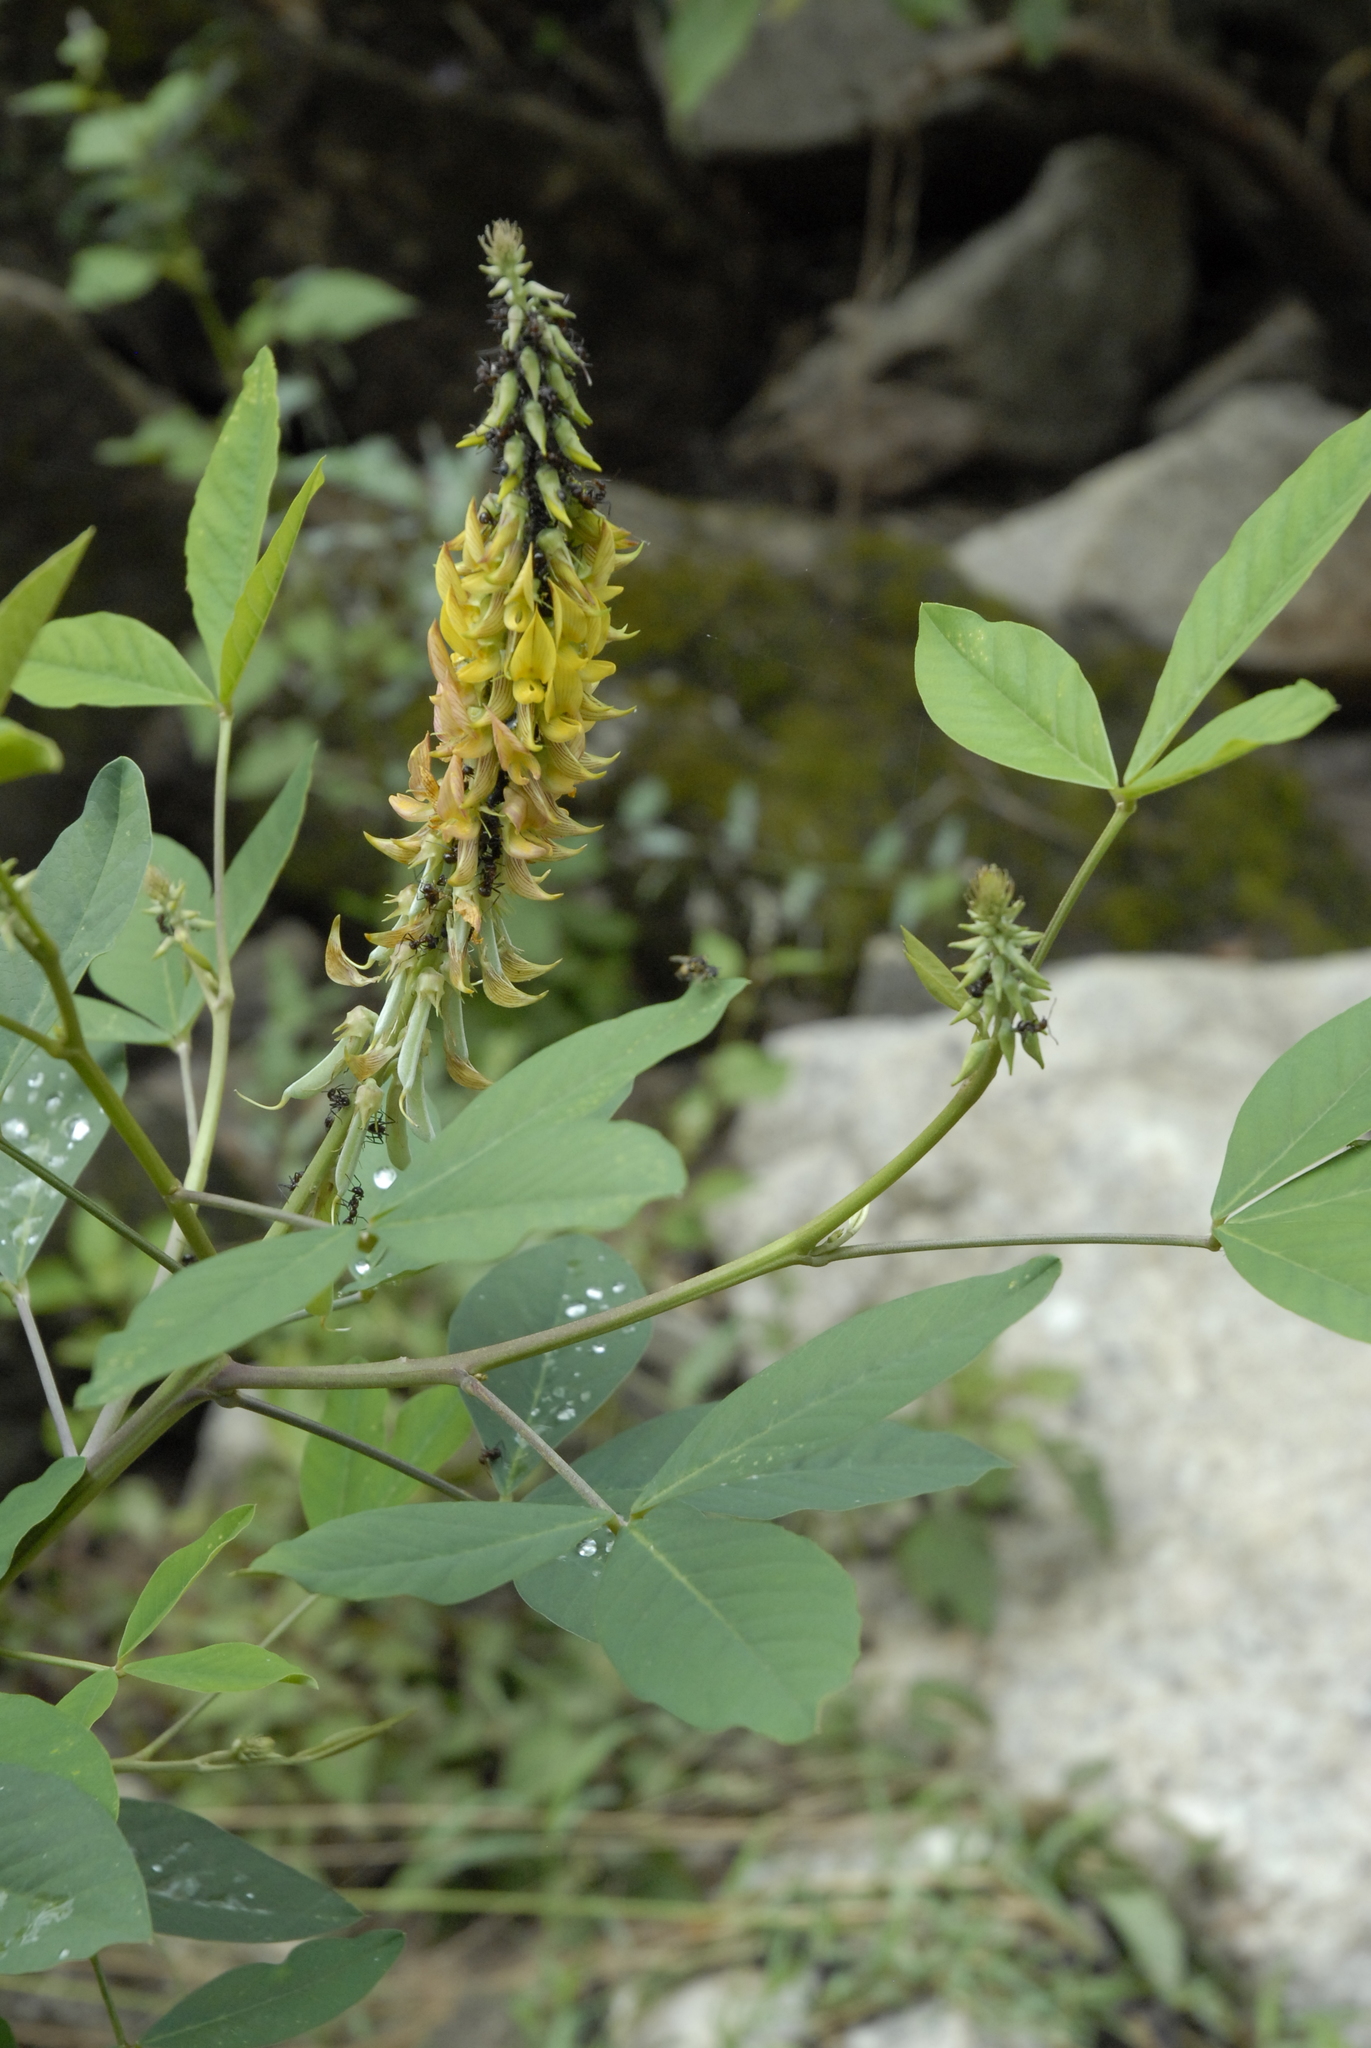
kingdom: Plantae
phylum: Tracheophyta
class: Magnoliopsida
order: Fabales
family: Fabaceae
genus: Crotalaria
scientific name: Crotalaria pallida
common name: Smooth rattlebox
